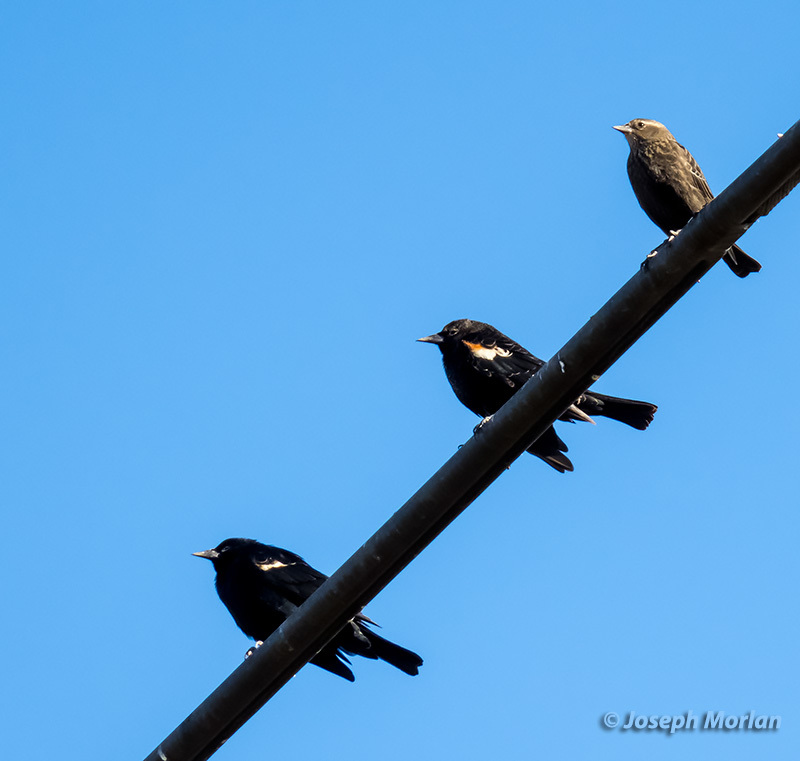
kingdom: Animalia
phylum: Chordata
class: Aves
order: Passeriformes
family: Icteridae
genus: Agelaius
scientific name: Agelaius tricolor
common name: Tricolored blackbird
